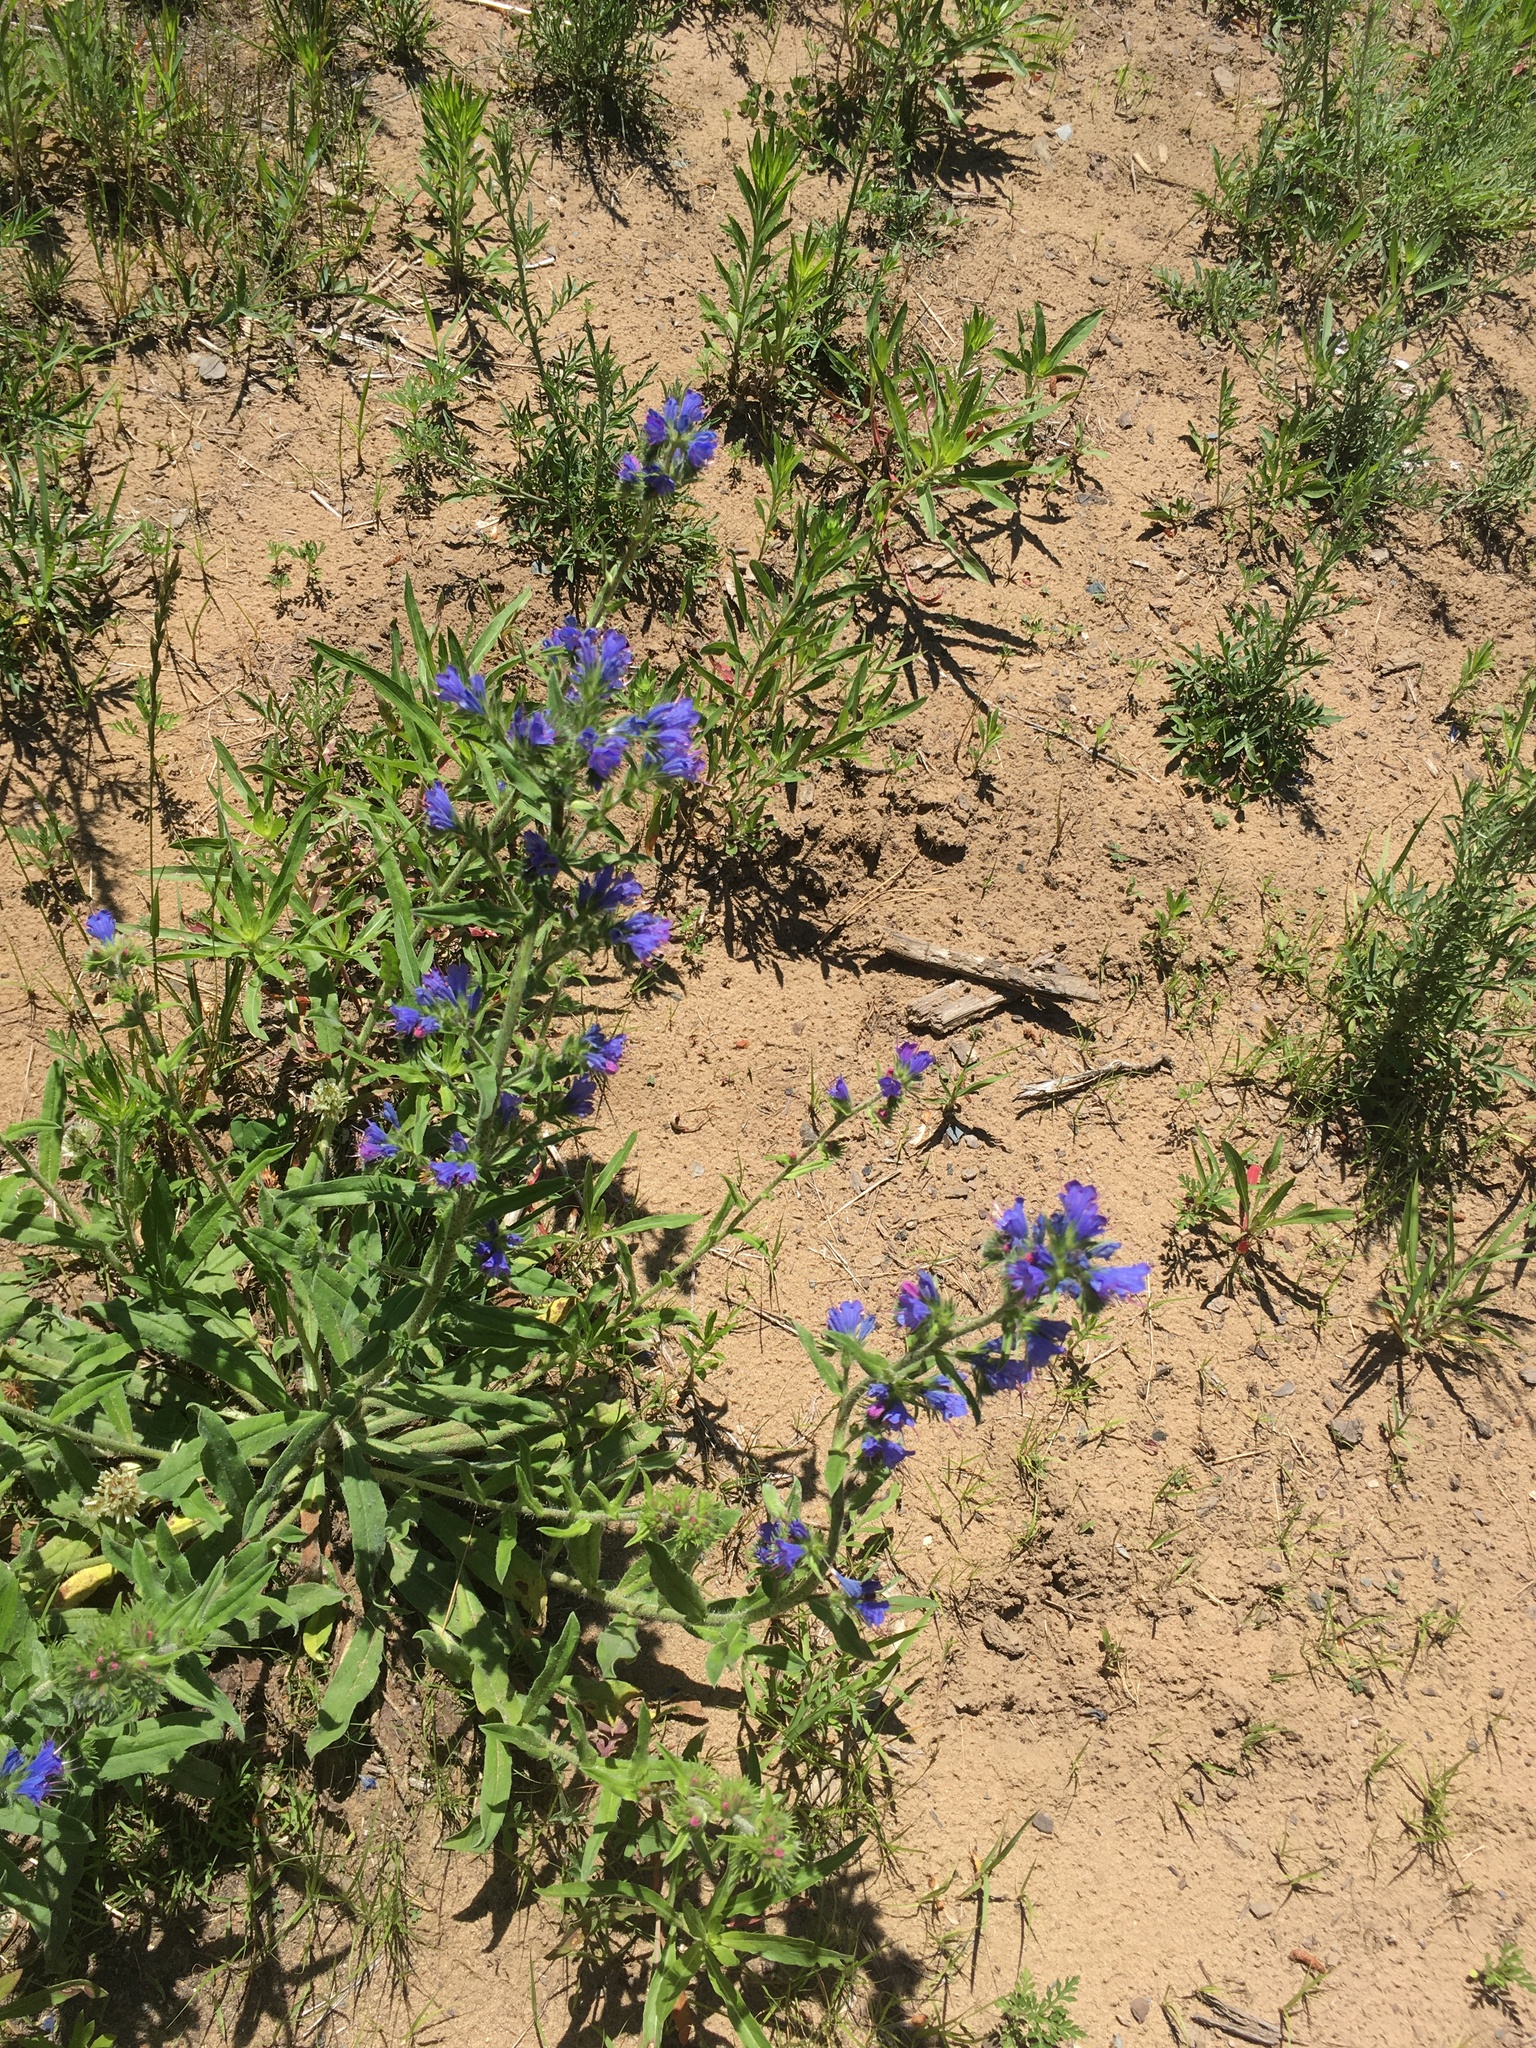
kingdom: Plantae
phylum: Tracheophyta
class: Magnoliopsida
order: Boraginales
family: Boraginaceae
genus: Echium
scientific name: Echium vulgare
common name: Common viper's bugloss
